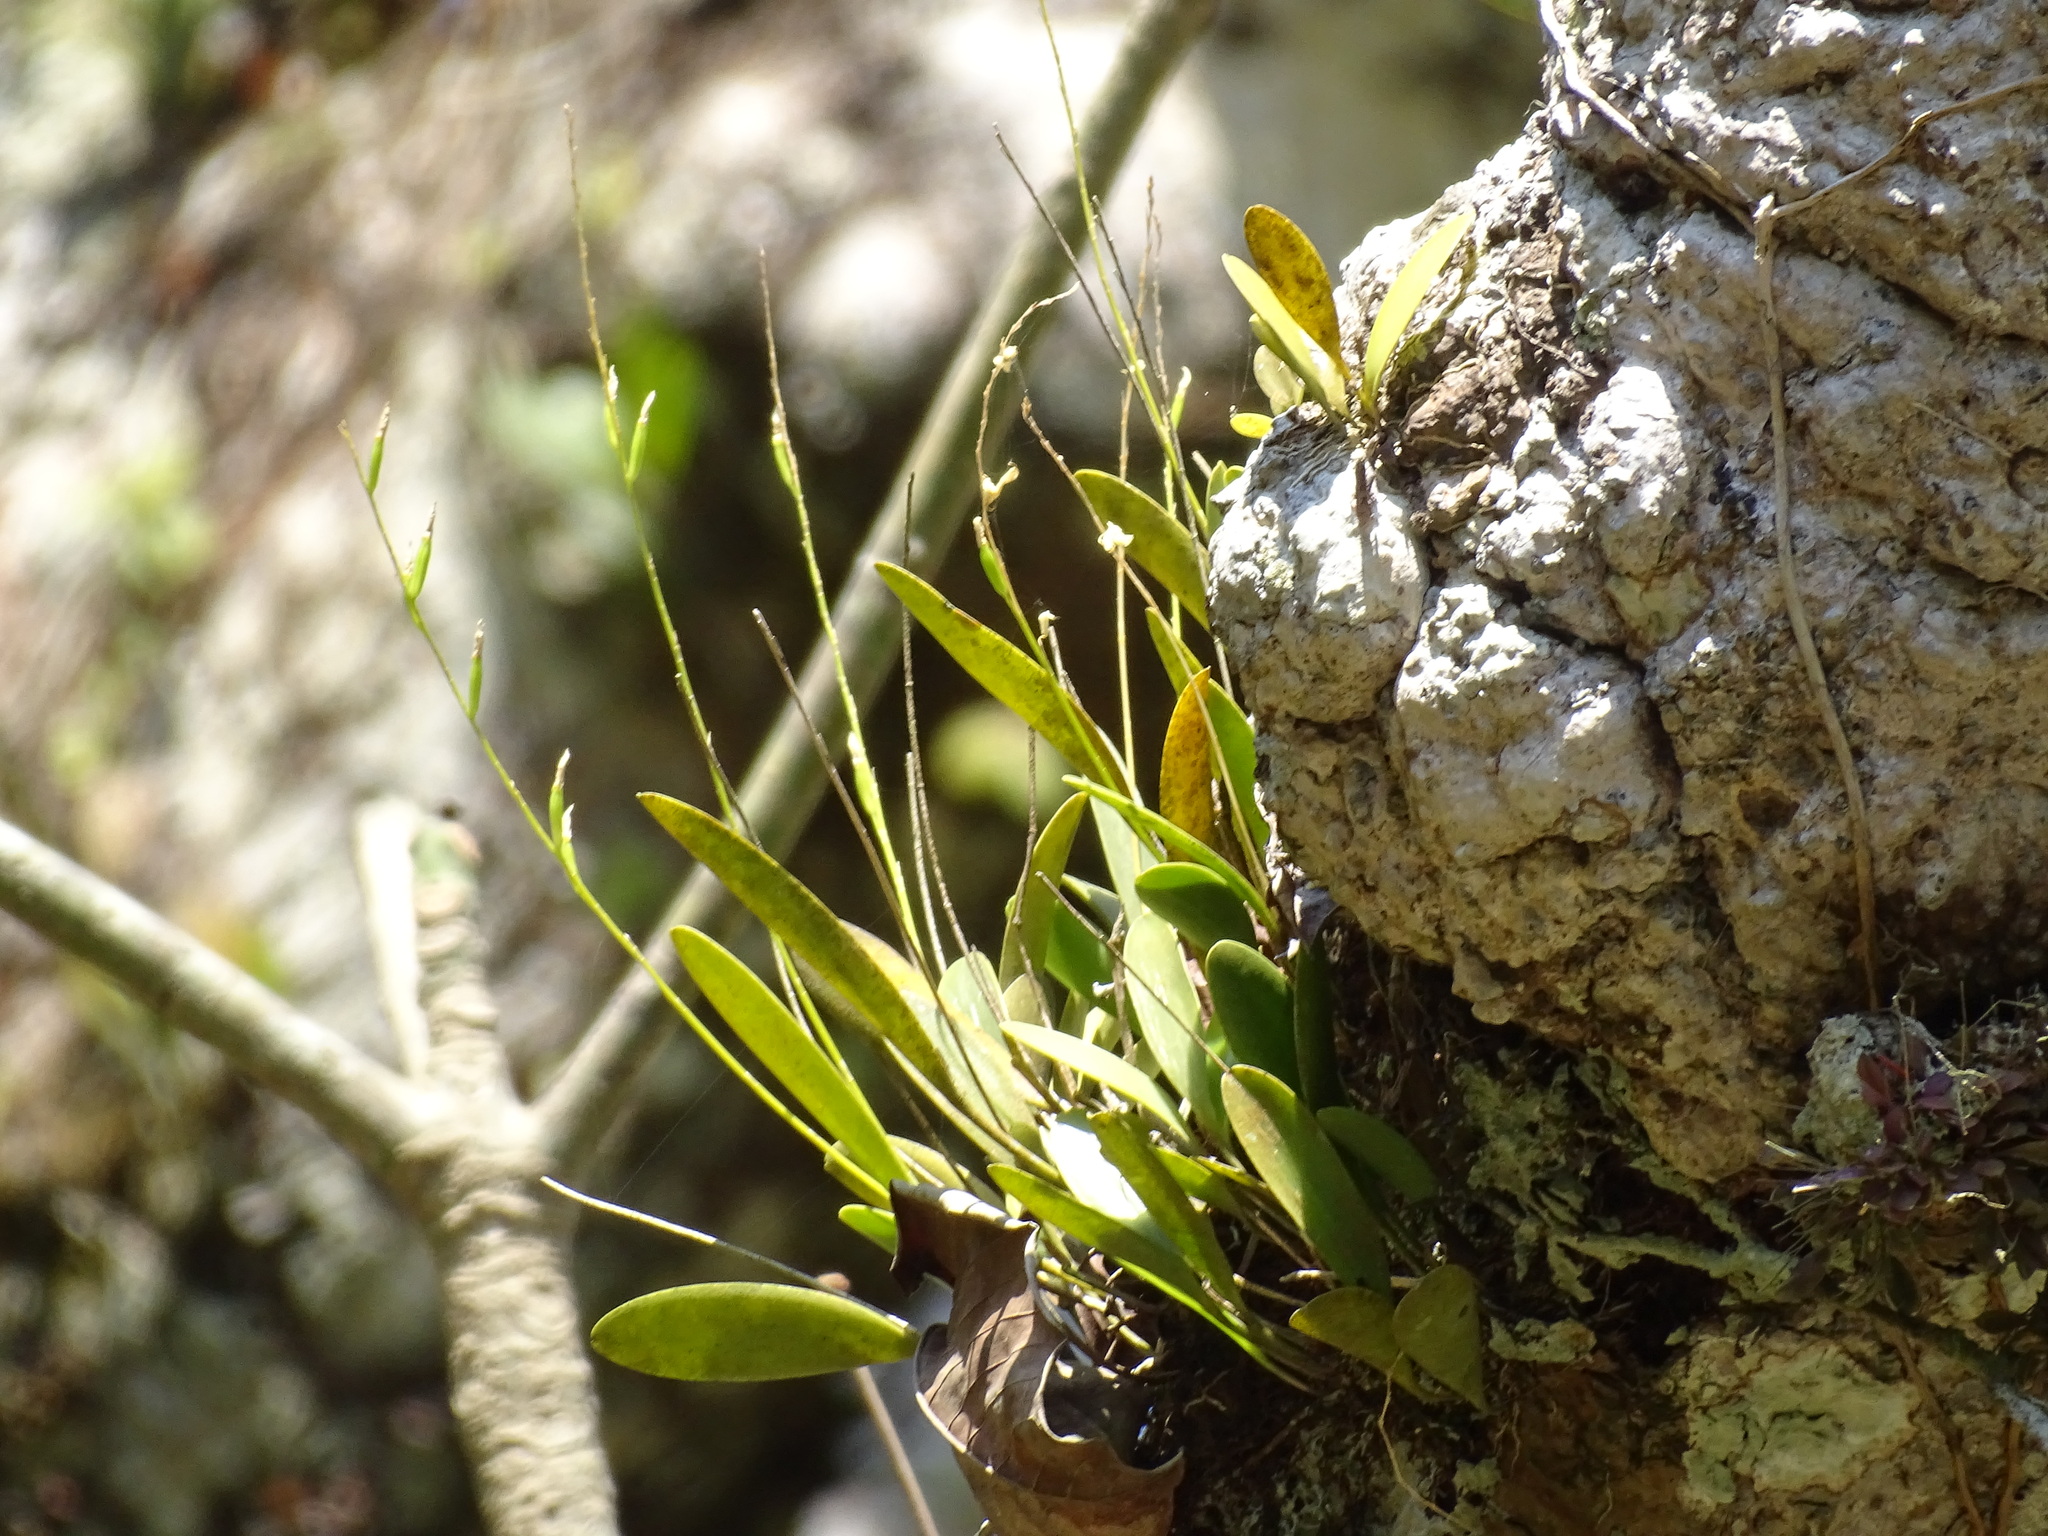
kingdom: Plantae
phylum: Tracheophyta
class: Liliopsida
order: Asparagales
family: Orchidaceae
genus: Pleurothallis
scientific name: Pleurothallis quadrifida
